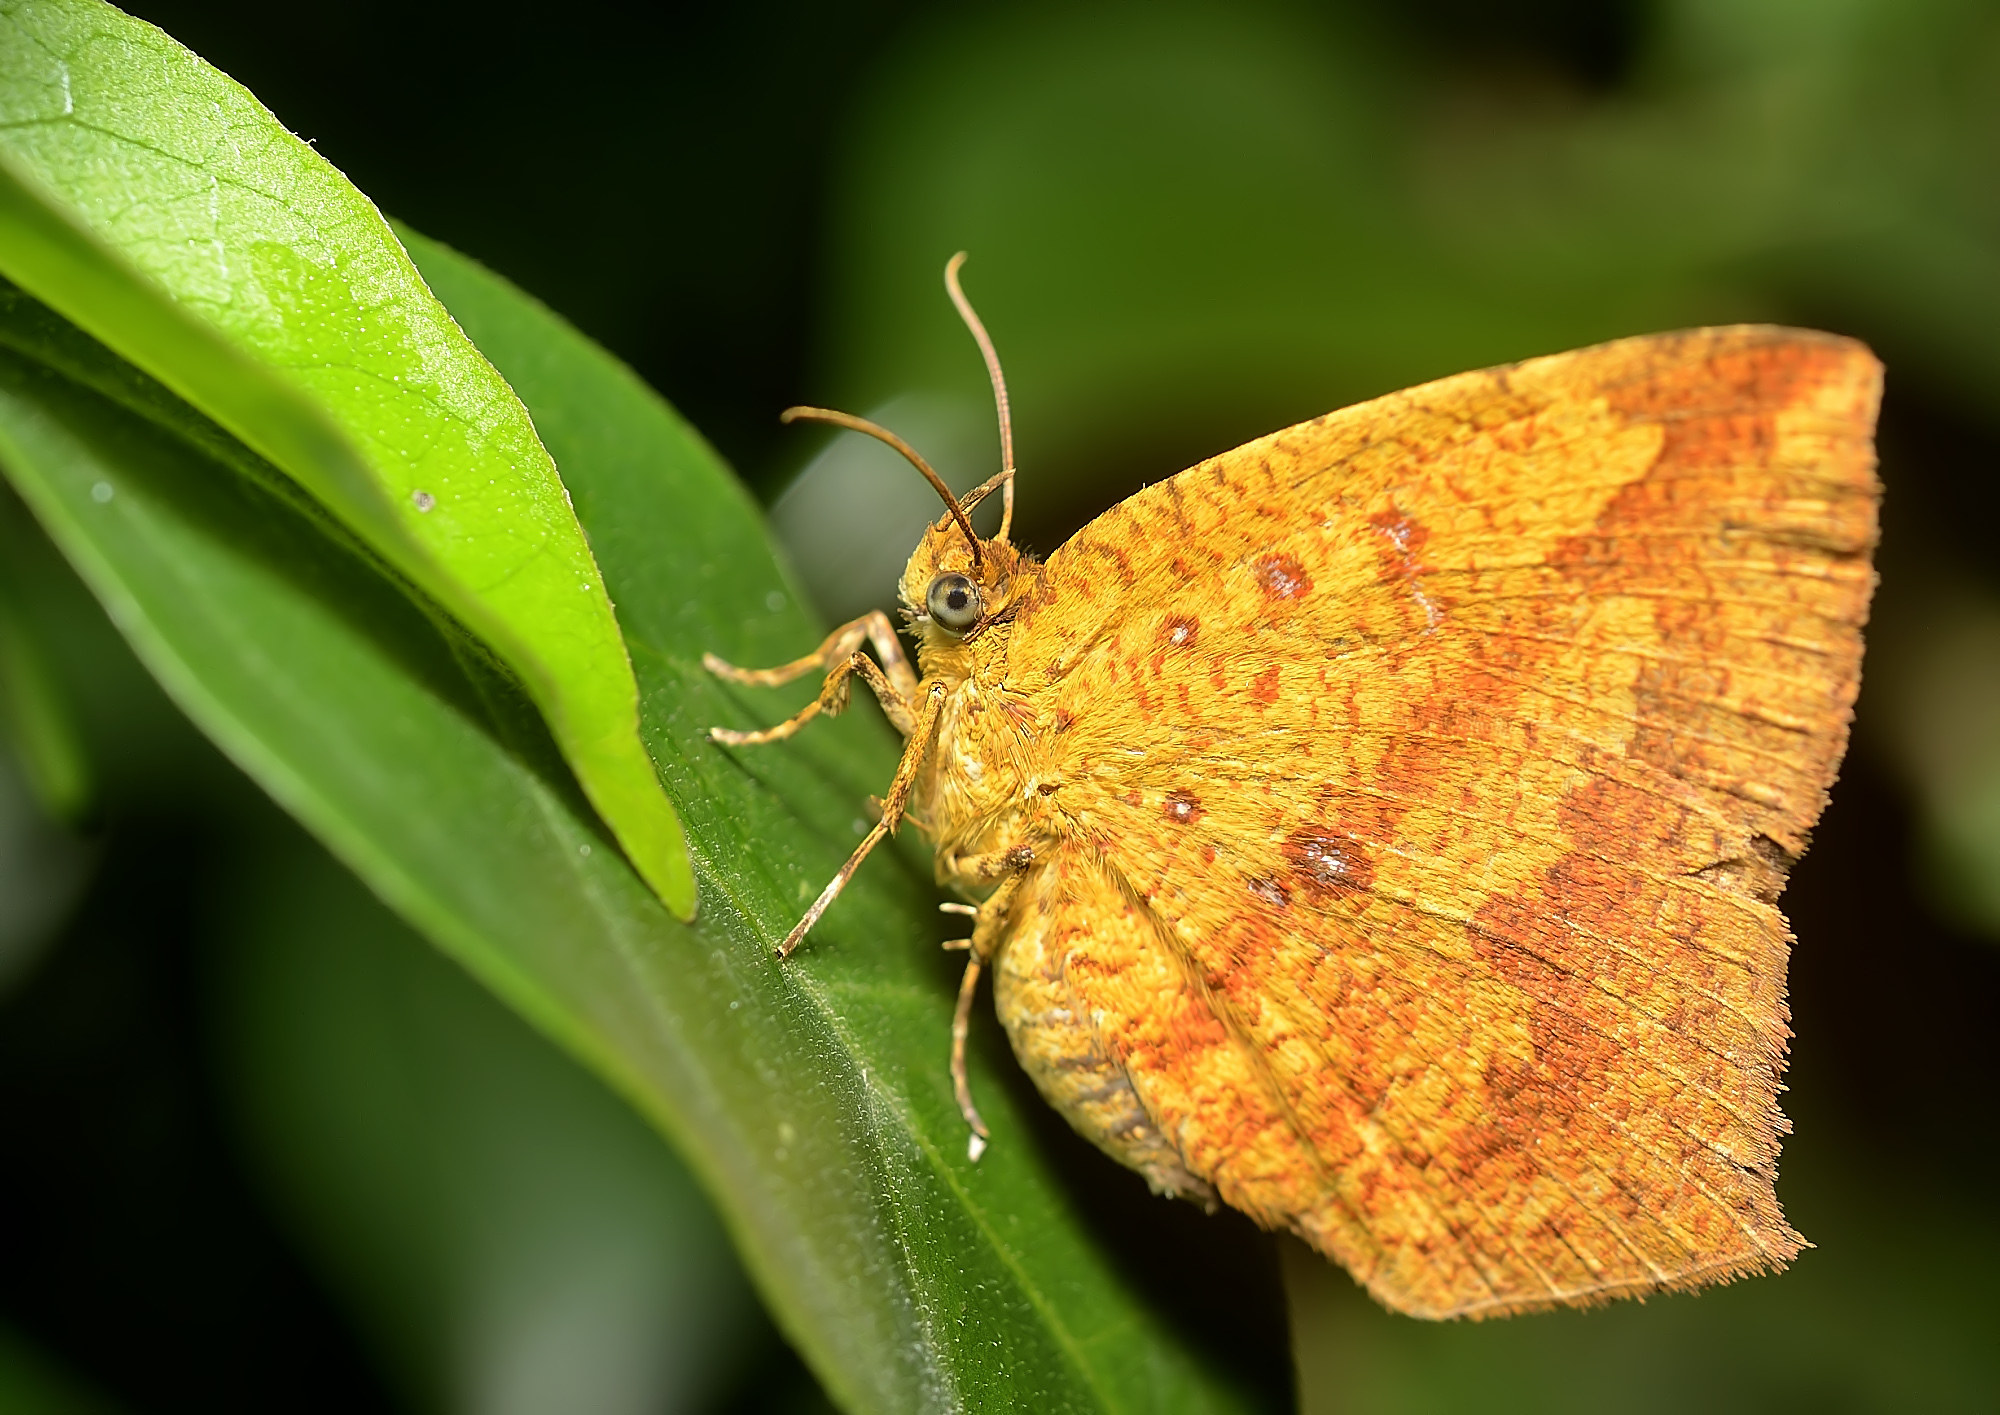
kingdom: Animalia
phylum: Arthropoda
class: Insecta
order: Lepidoptera
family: Callidulidae
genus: Tetragonus
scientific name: Tetragonus catamitus
